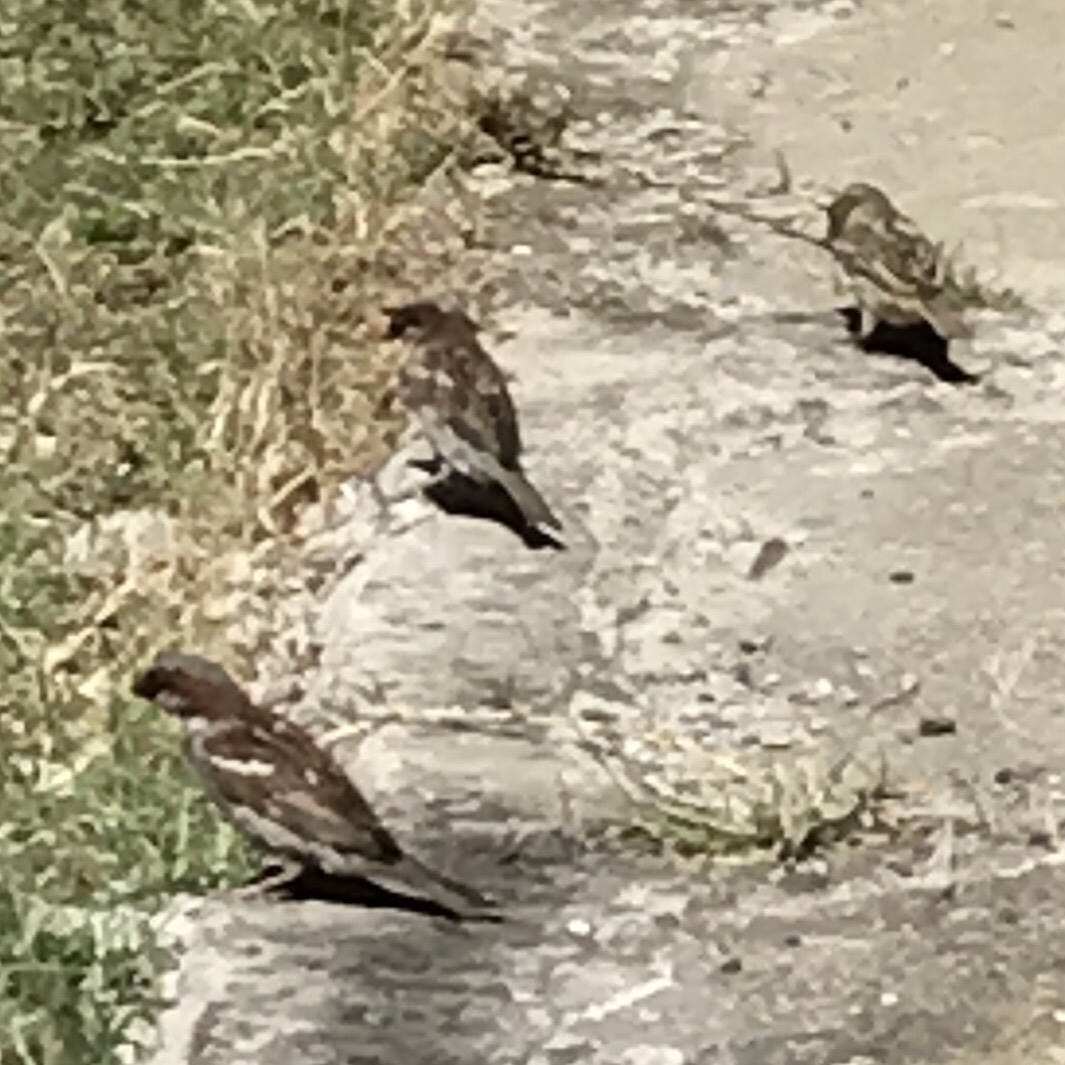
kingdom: Animalia
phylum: Chordata
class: Aves
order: Passeriformes
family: Passeridae
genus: Passer
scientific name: Passer domesticus
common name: House sparrow
